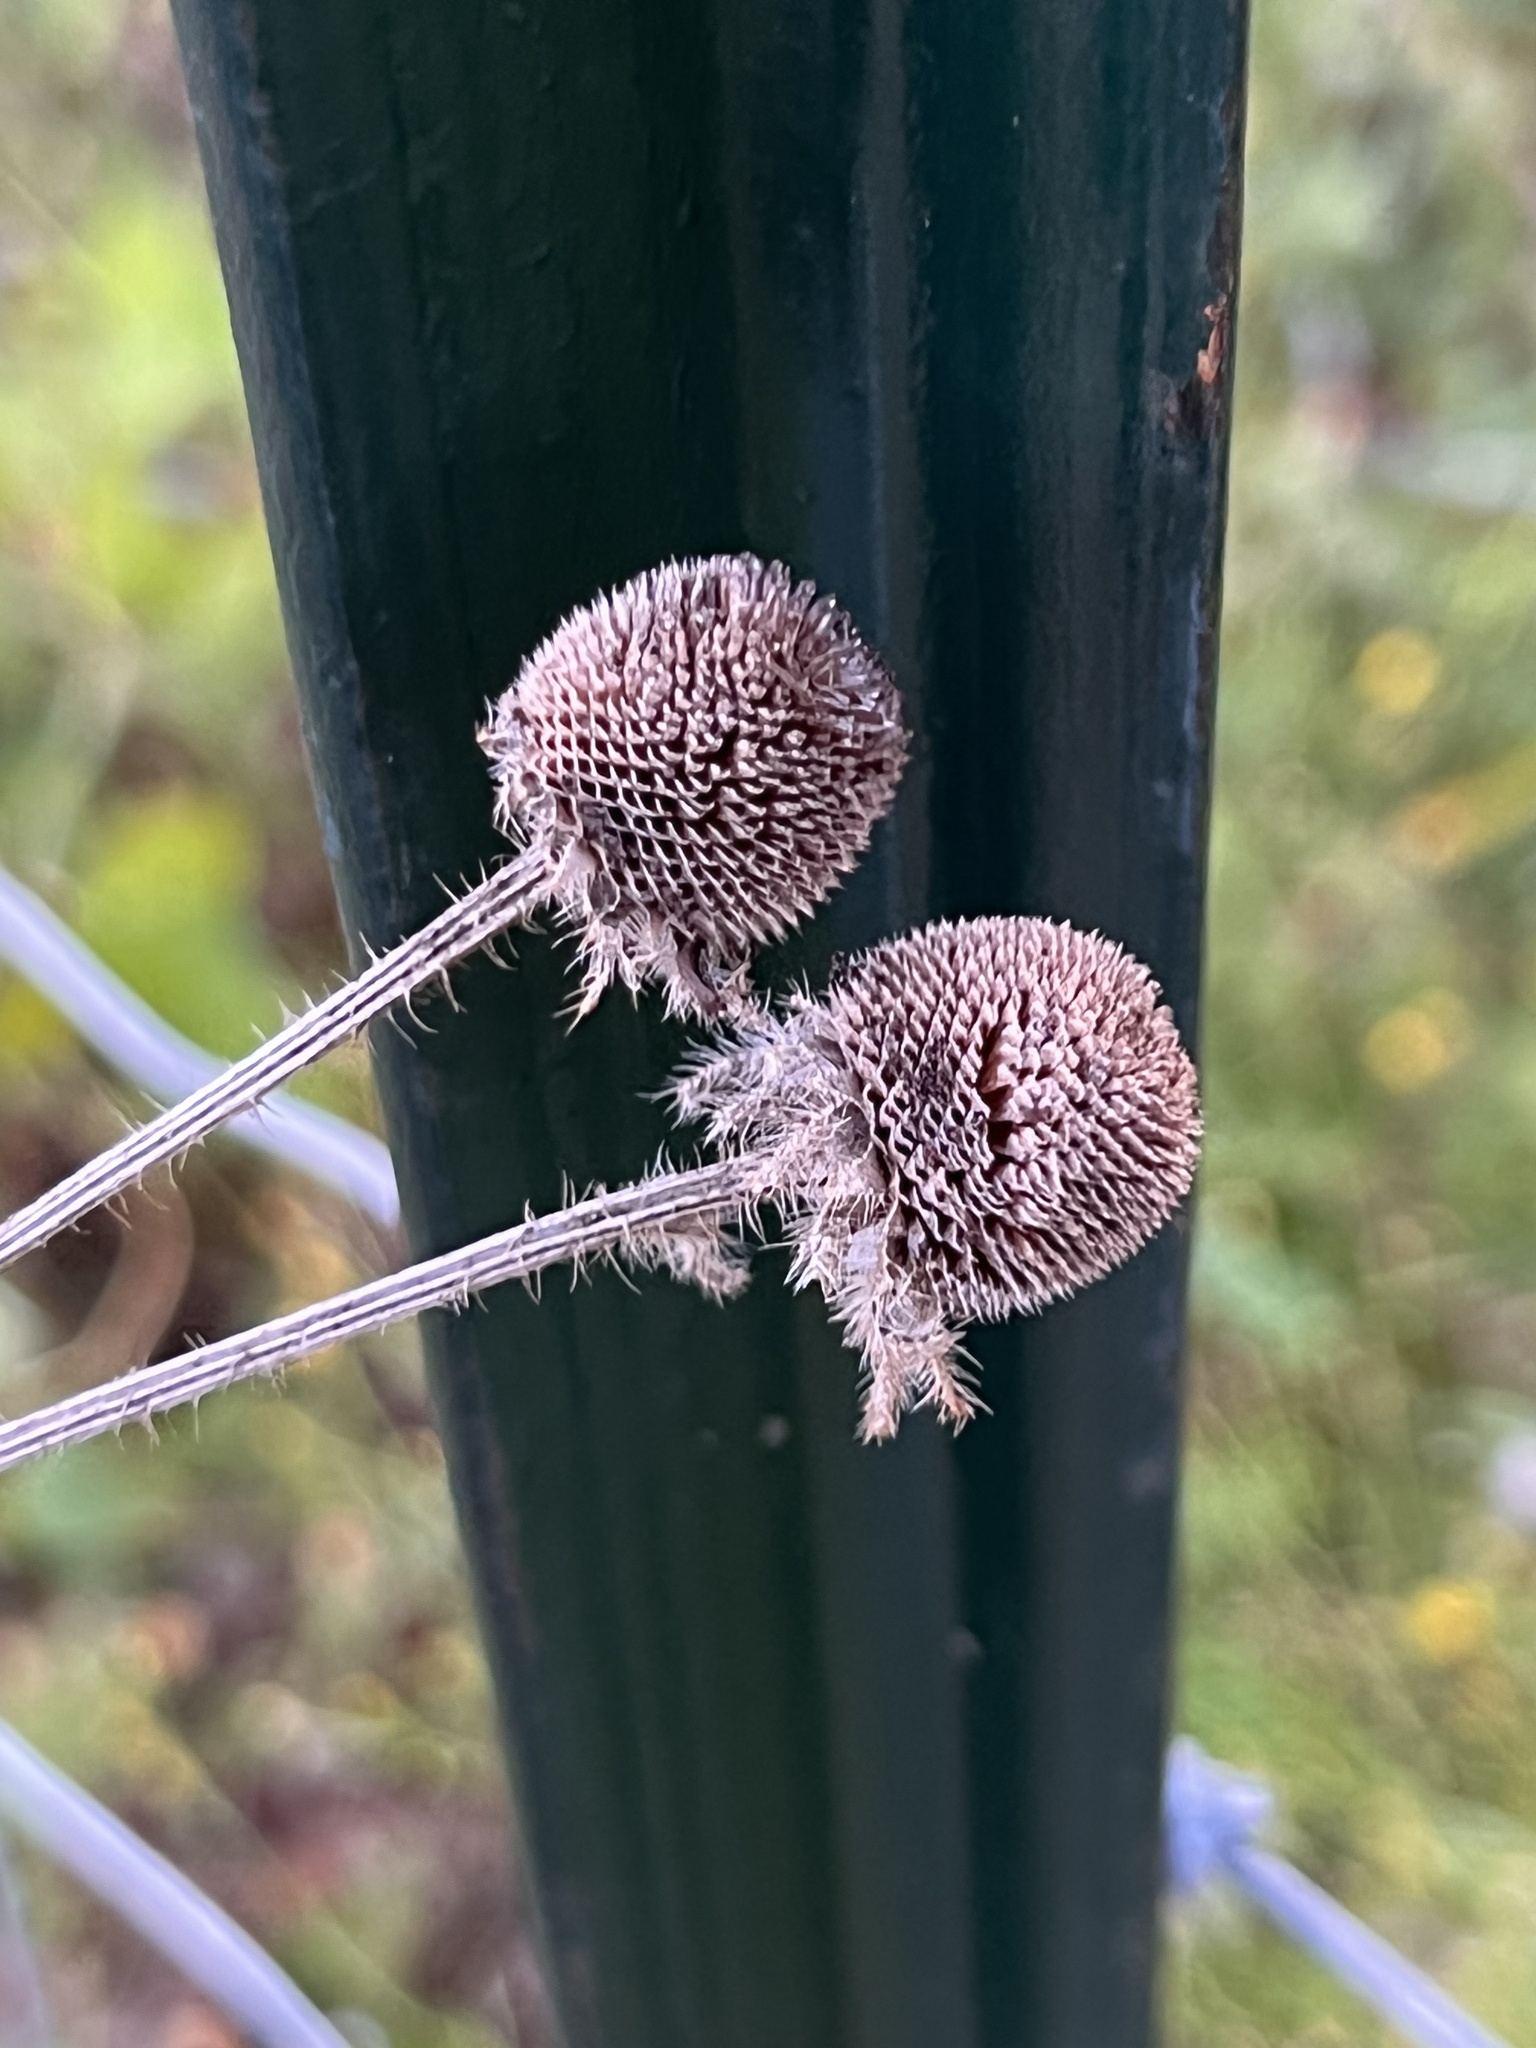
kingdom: Plantae
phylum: Tracheophyta
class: Magnoliopsida
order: Asterales
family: Asteraceae
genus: Rudbeckia
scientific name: Rudbeckia hirta
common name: Black-eyed-susan
